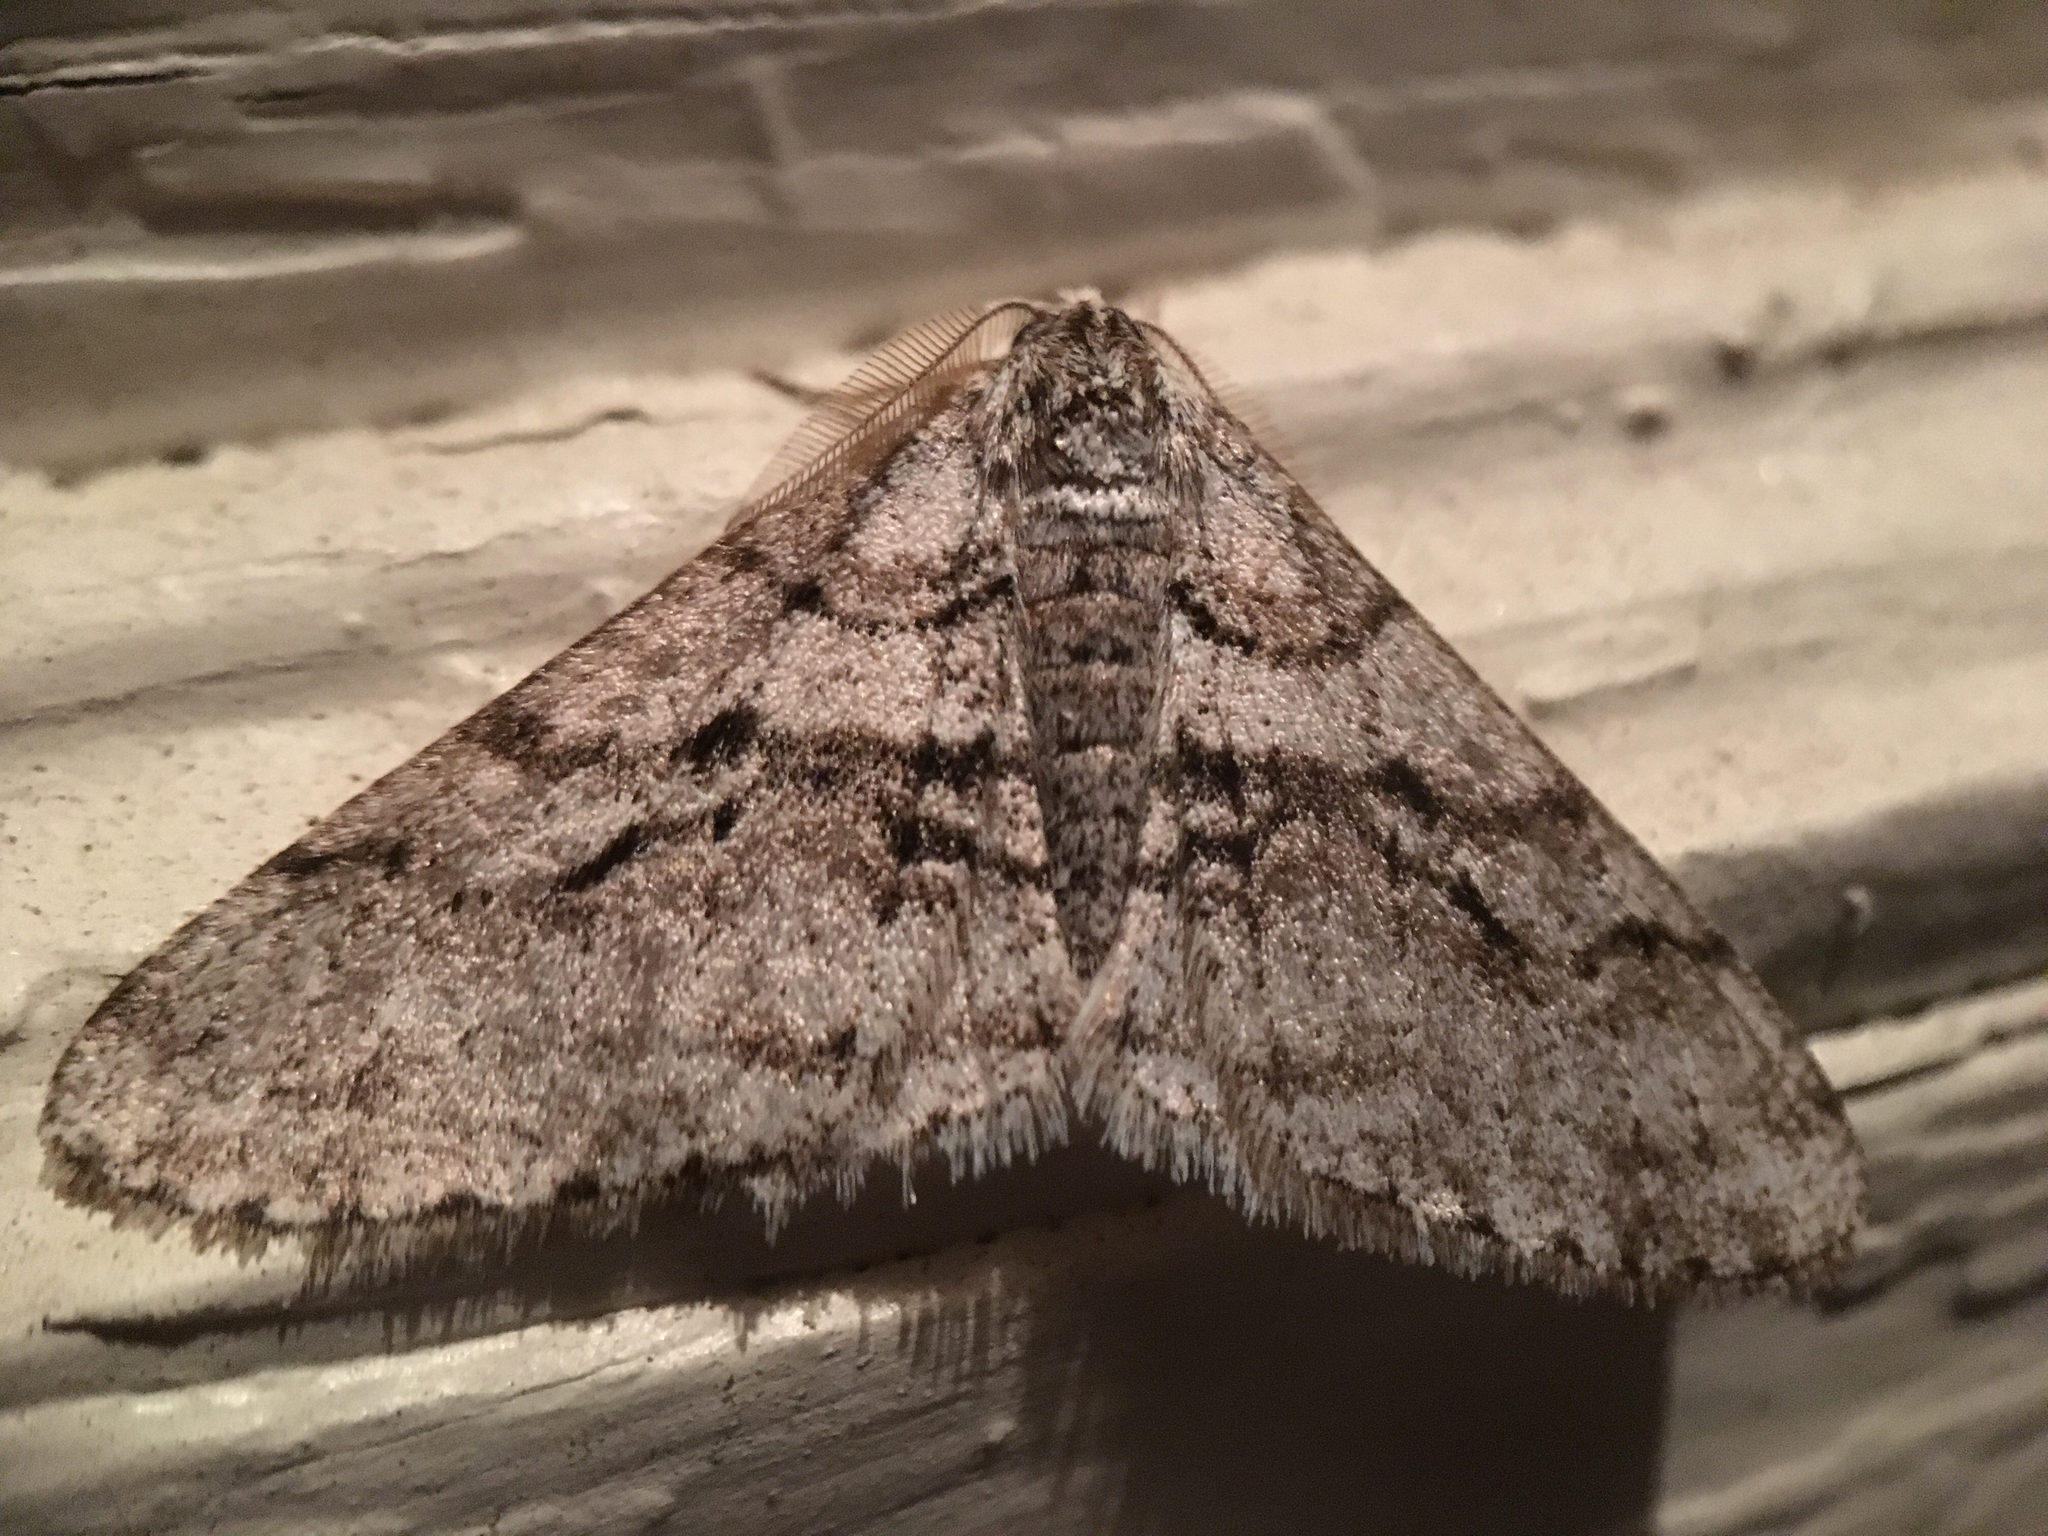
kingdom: Animalia
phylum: Arthropoda
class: Insecta
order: Lepidoptera
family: Geometridae
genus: Phigalia
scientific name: Phigalia titea
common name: Spiny looper
